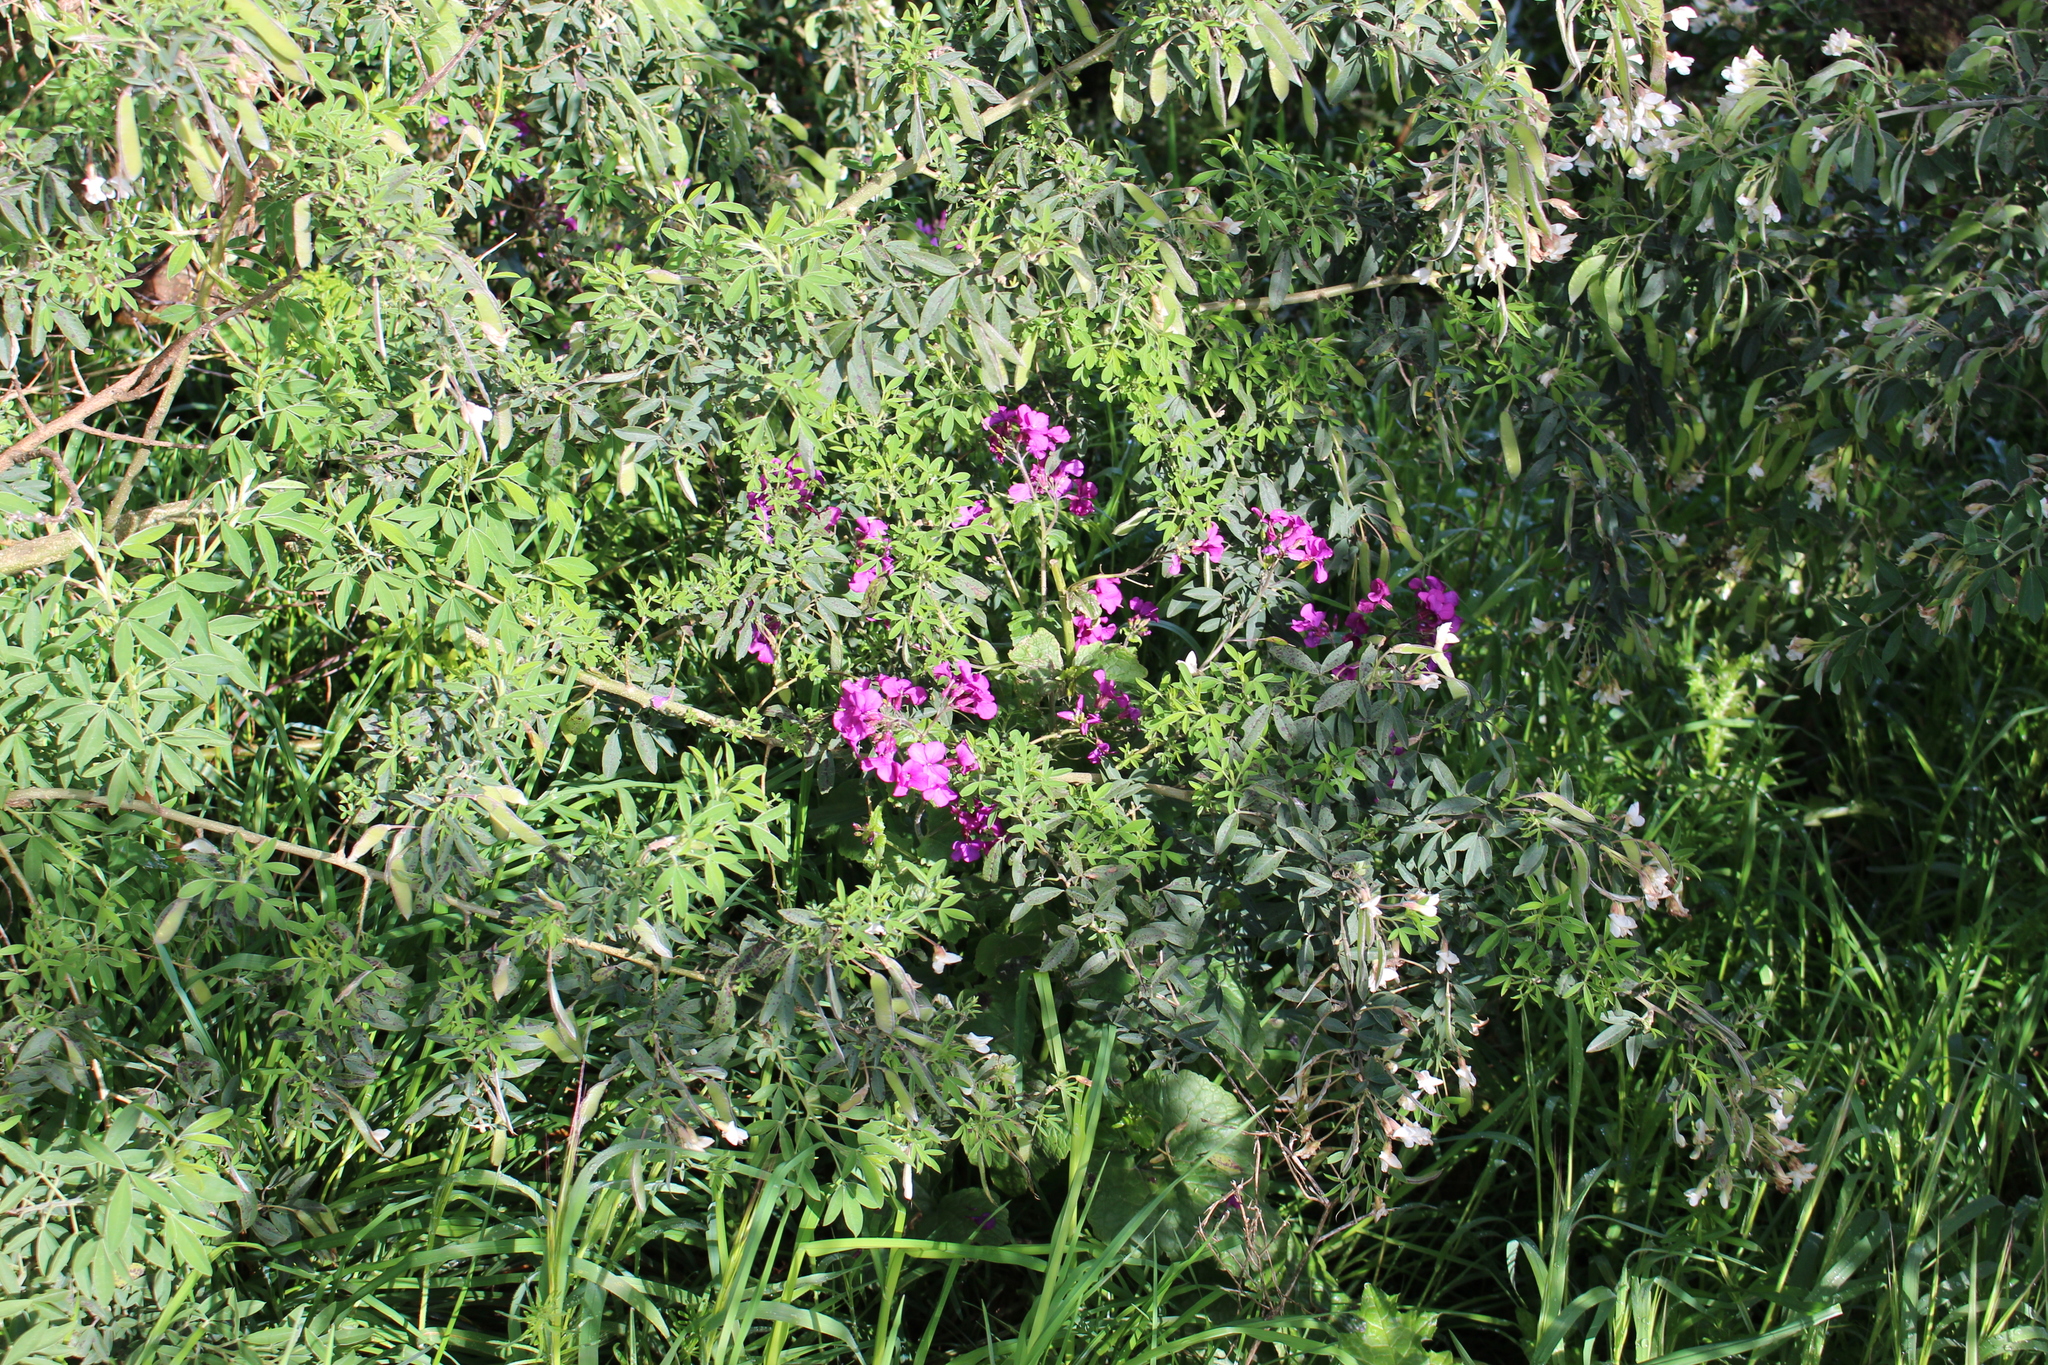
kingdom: Plantae
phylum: Tracheophyta
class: Magnoliopsida
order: Brassicales
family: Brassicaceae
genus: Lunaria
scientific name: Lunaria annua
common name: Honesty
